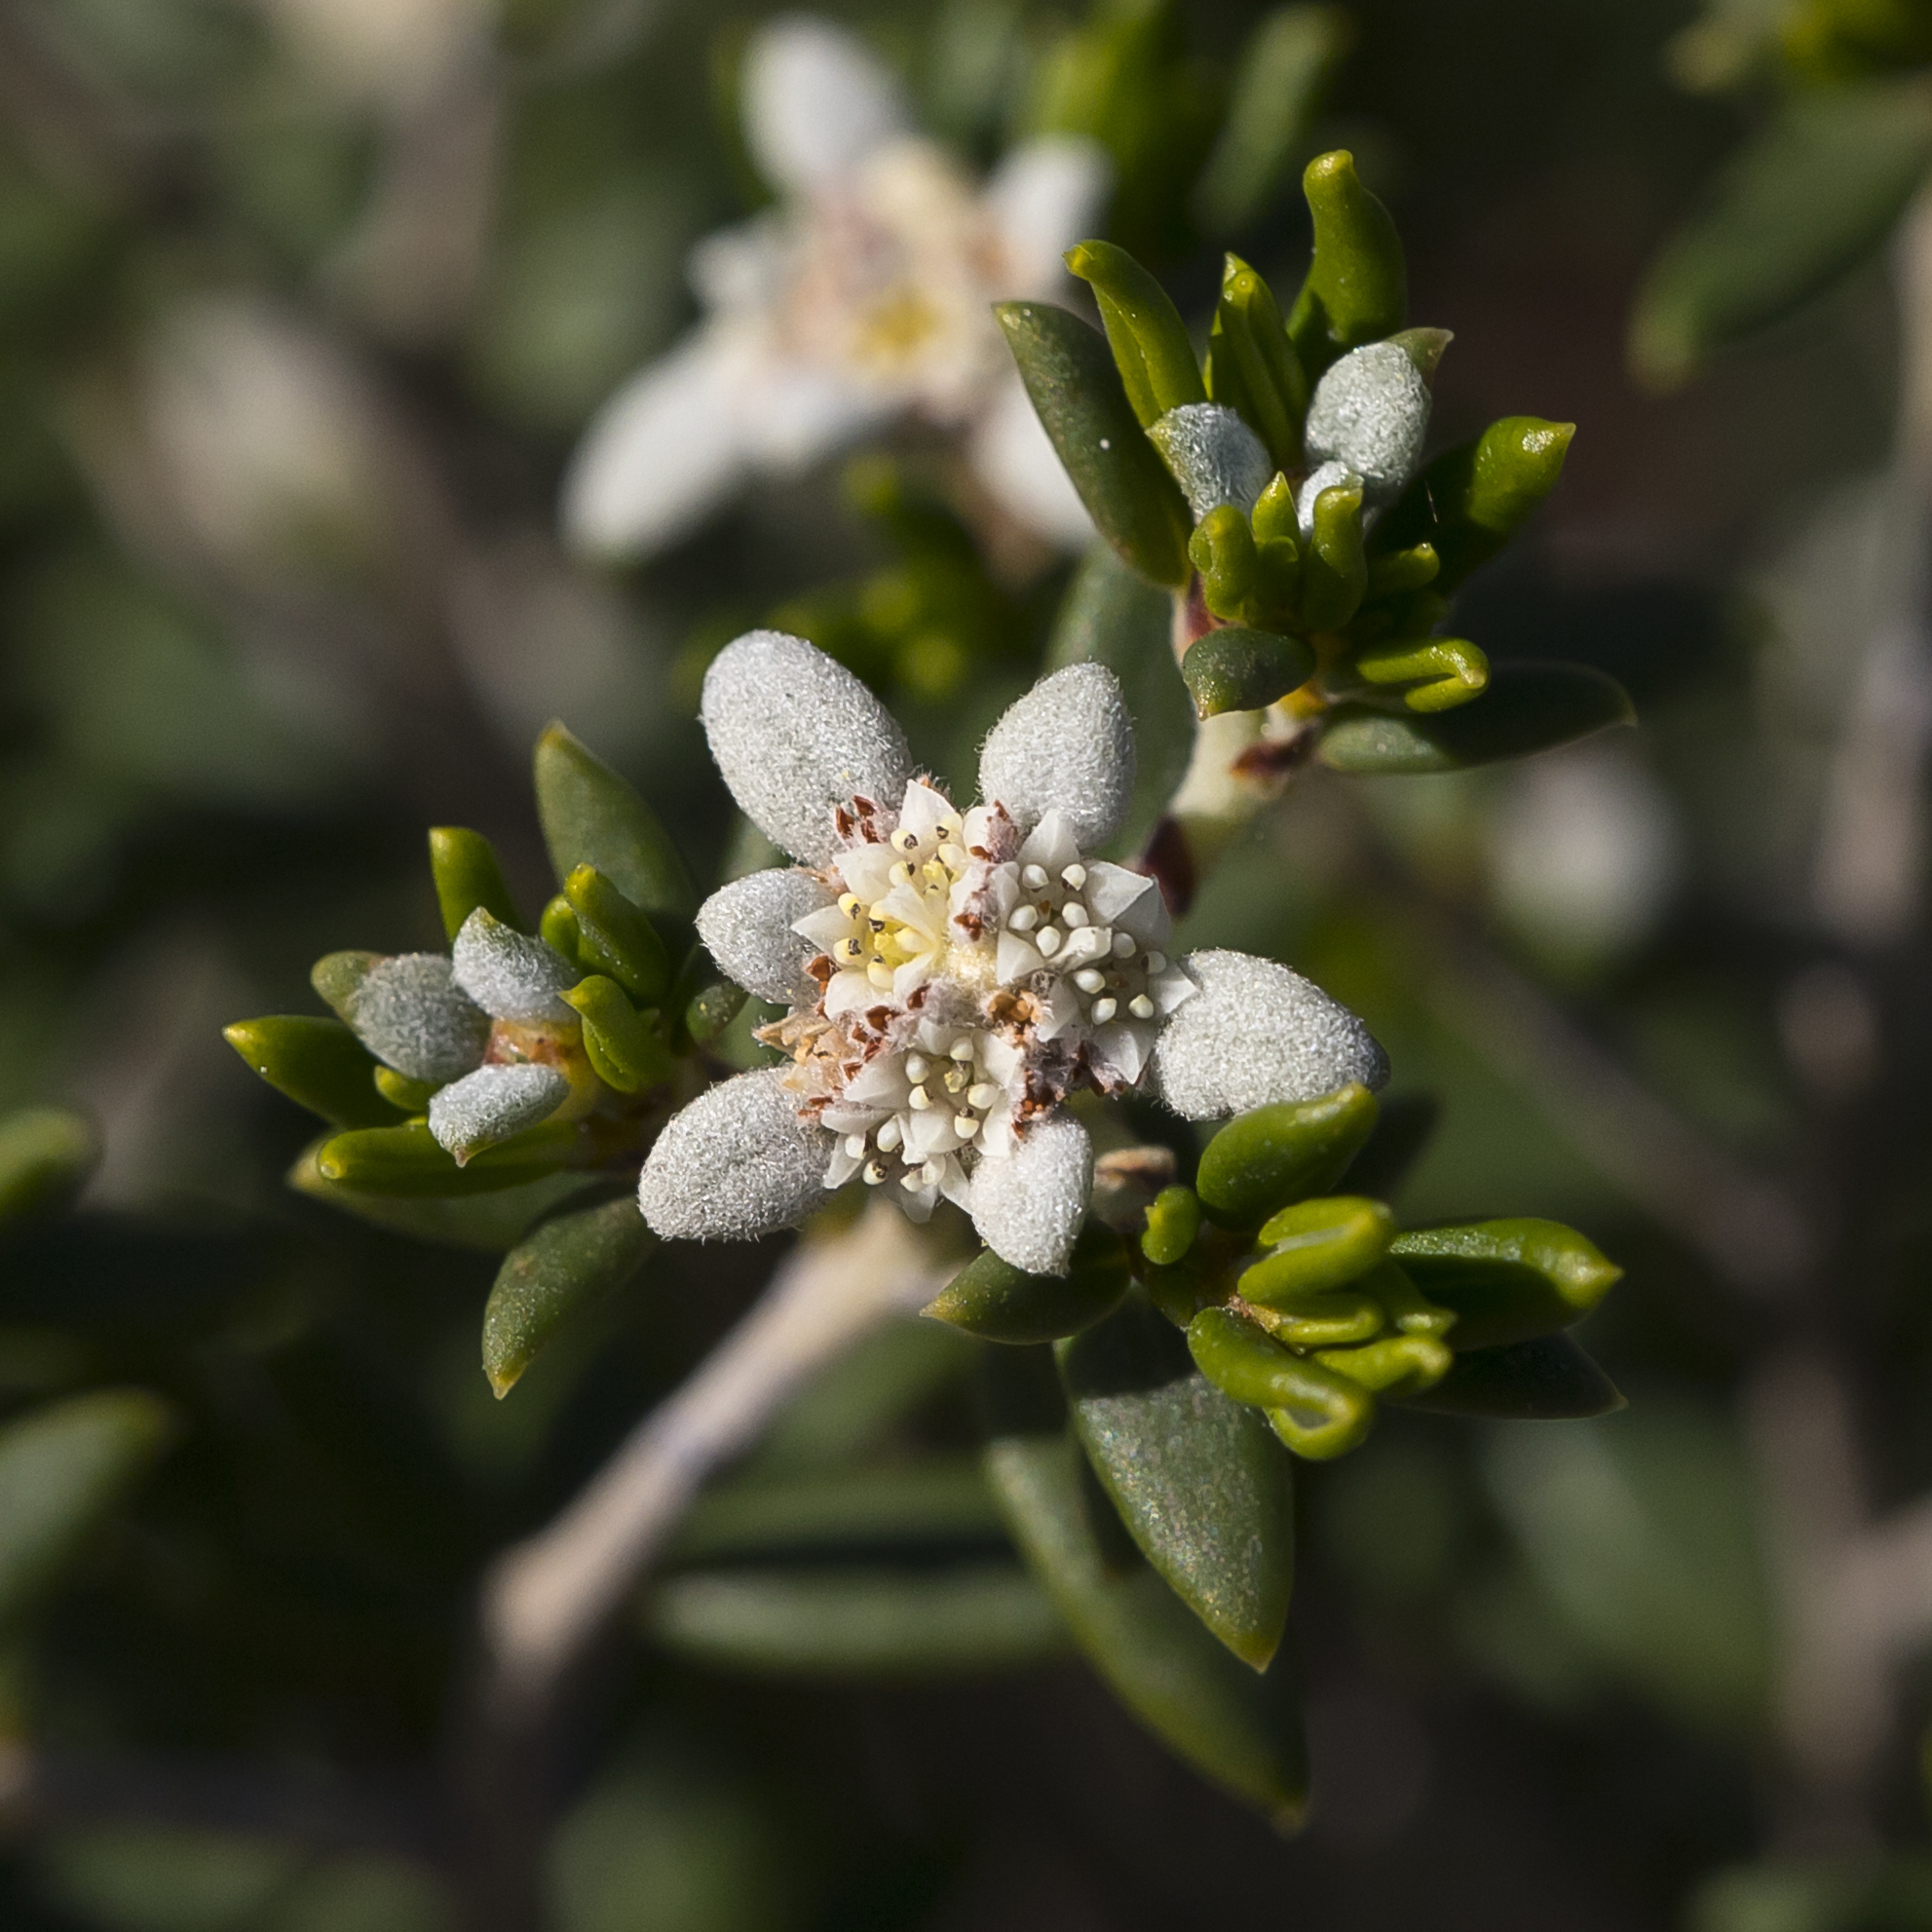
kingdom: Plantae
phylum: Tracheophyta
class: Magnoliopsida
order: Rosales
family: Rhamnaceae
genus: Spyridium
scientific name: Spyridium phylicoides
